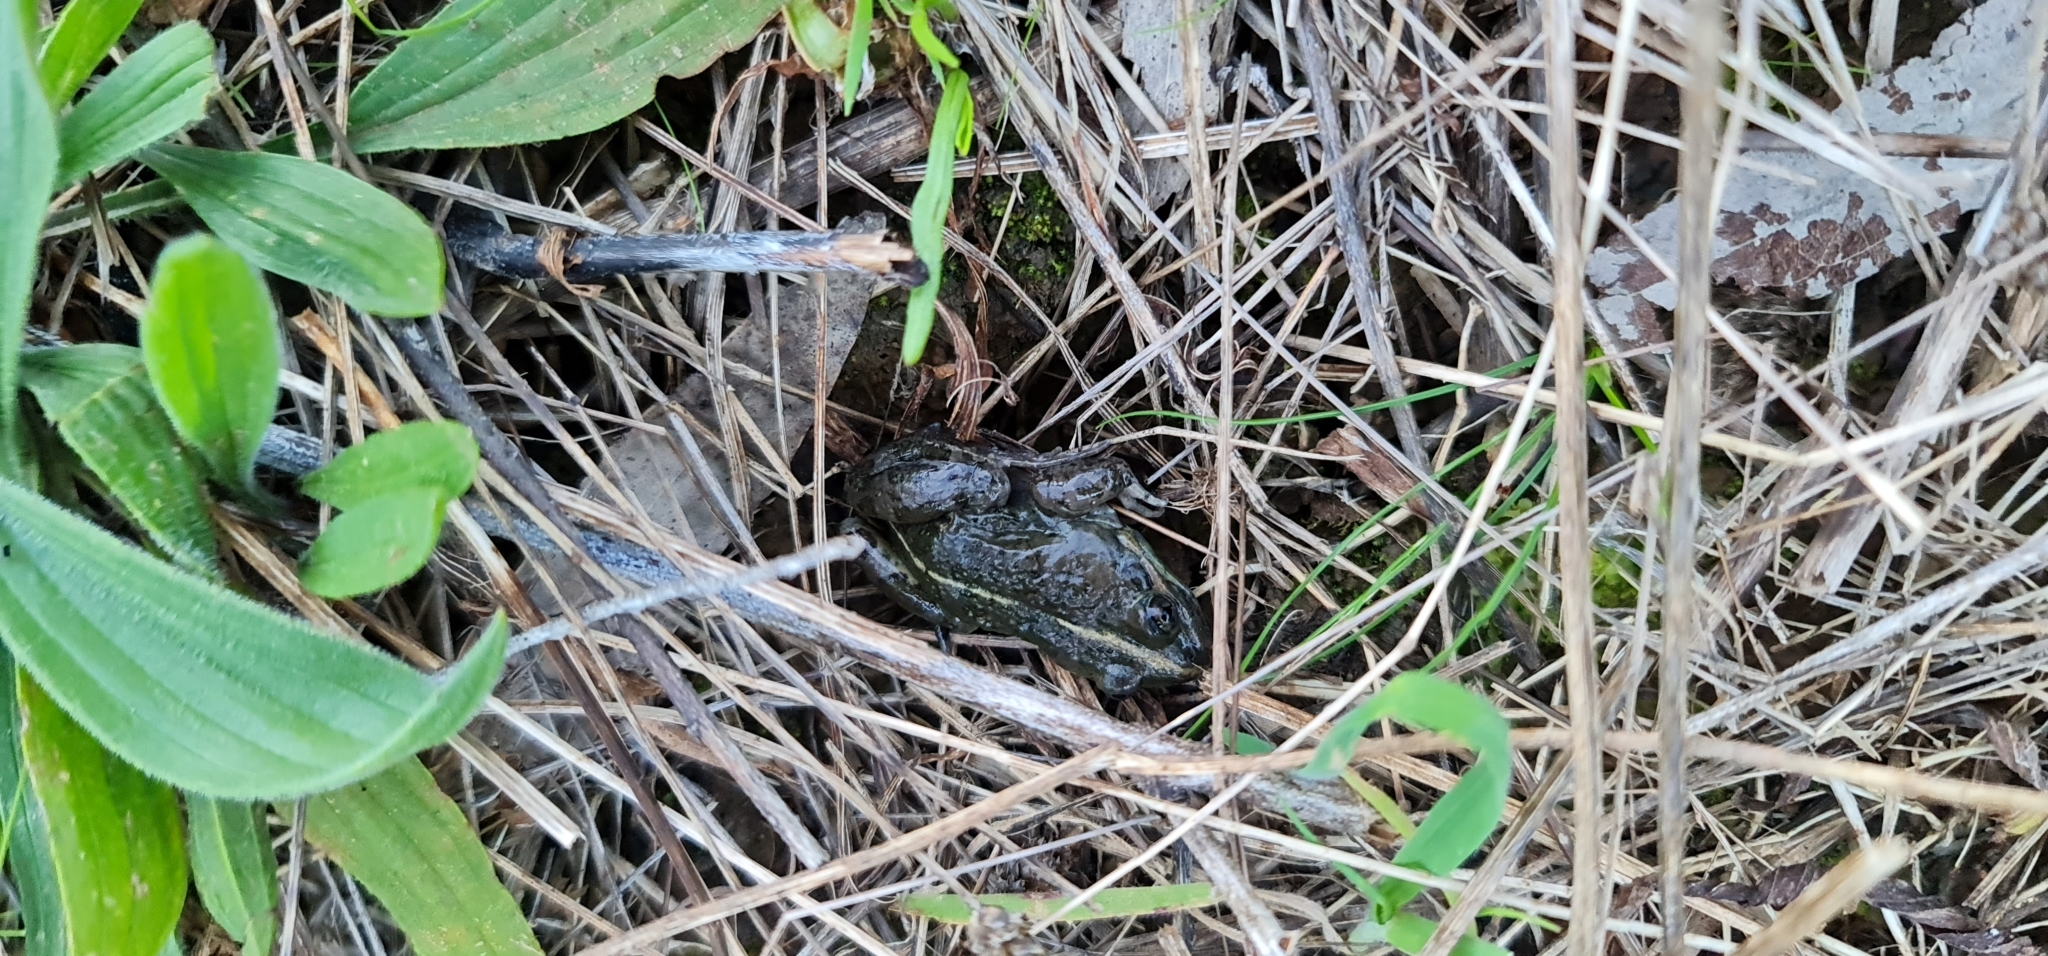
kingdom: Animalia
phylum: Chordata
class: Amphibia
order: Anura
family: Limnodynastidae
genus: Limnodynastes
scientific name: Limnodynastes tasmaniensis
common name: Spotted marsh frog
